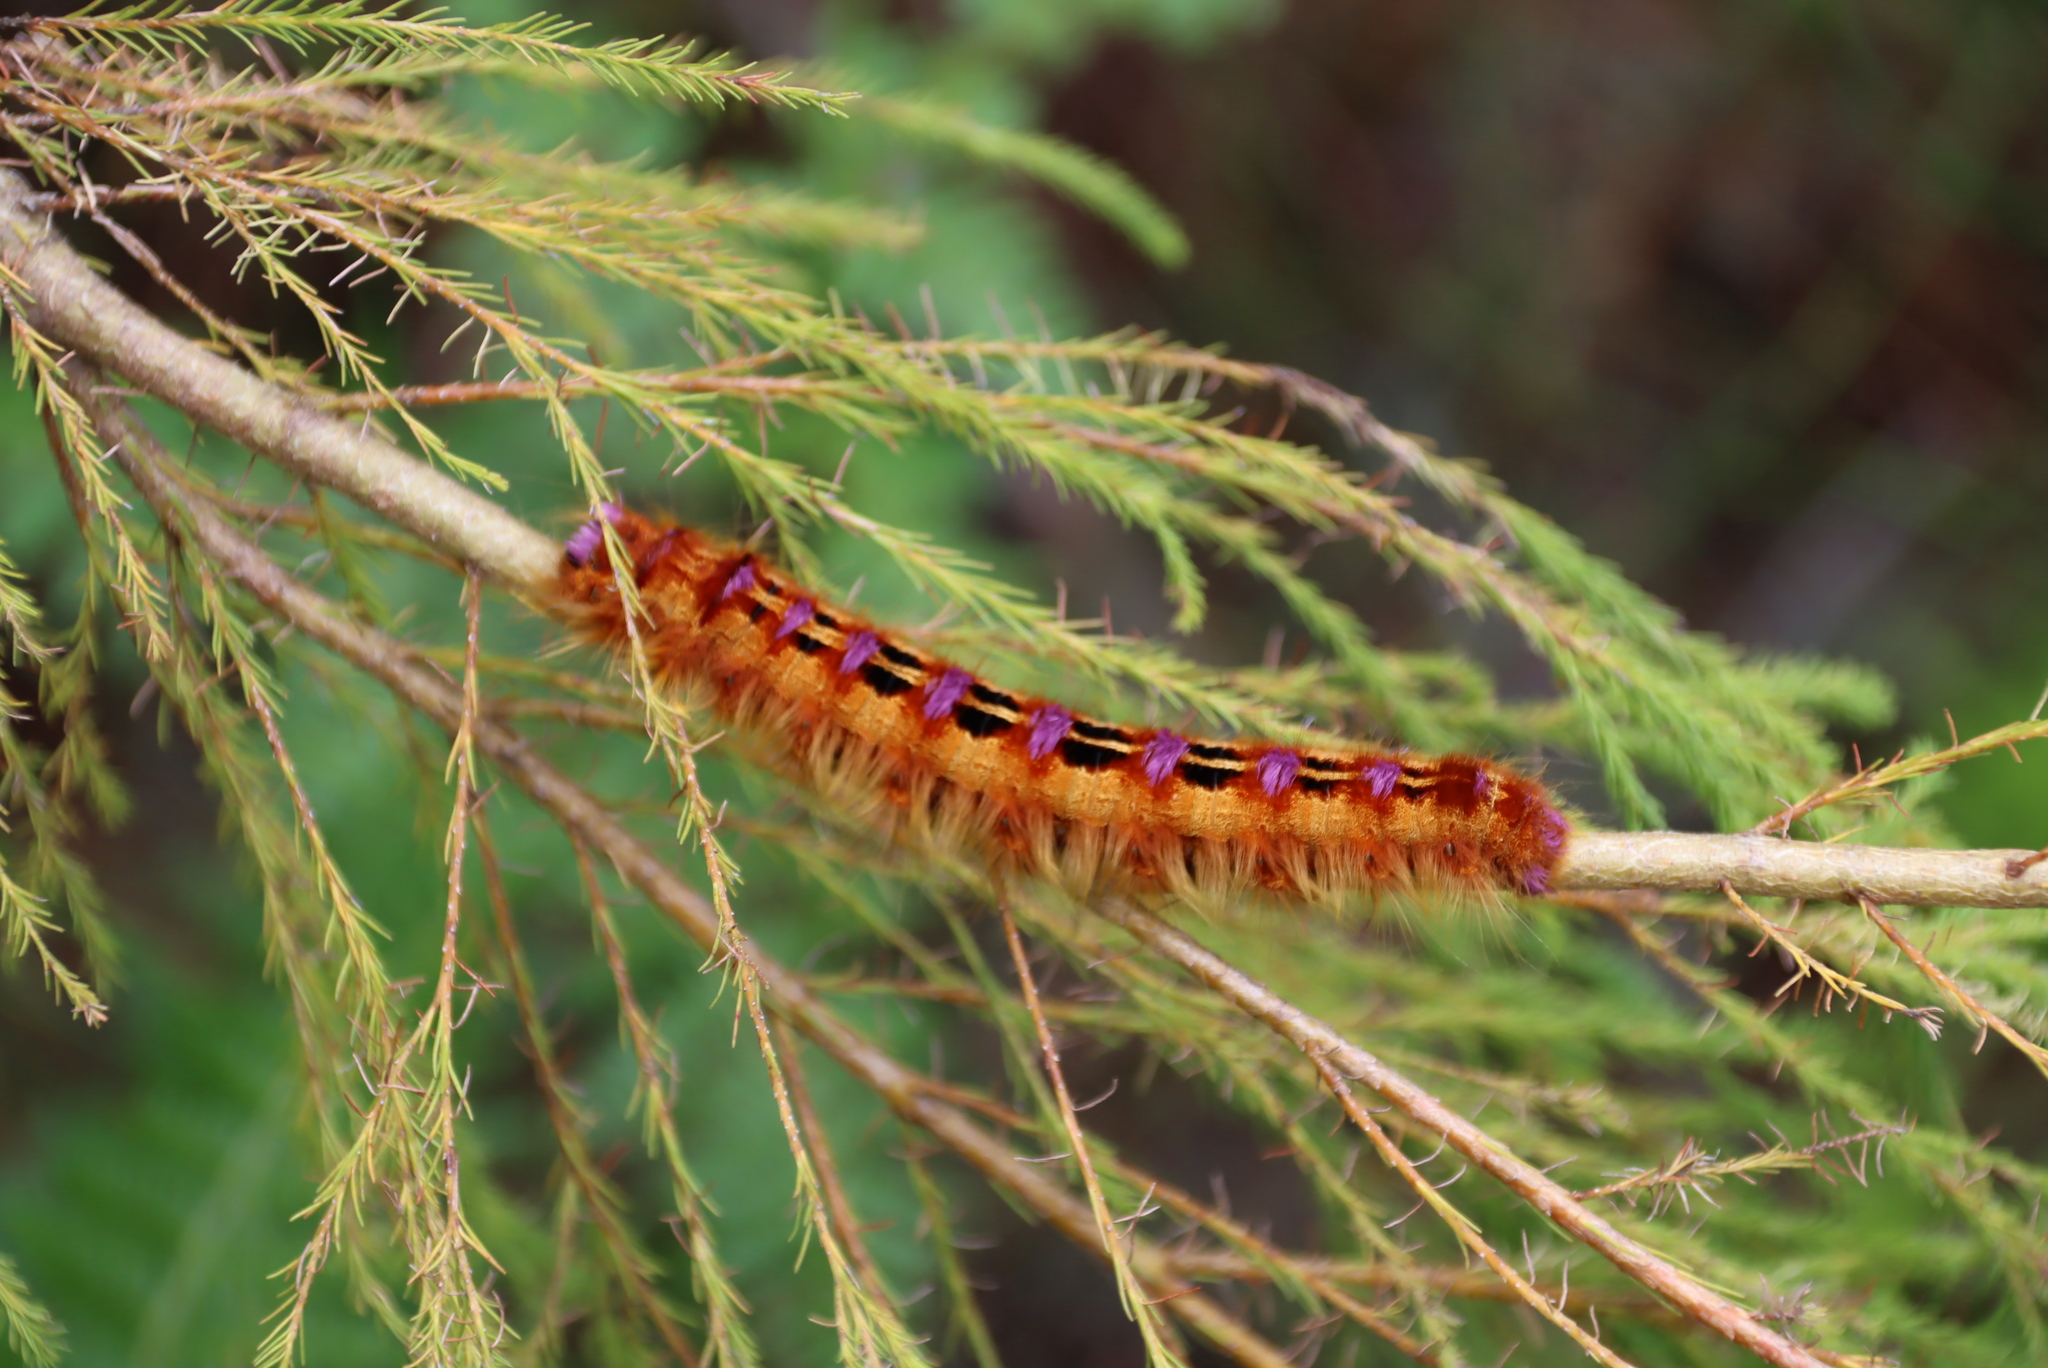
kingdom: Animalia
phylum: Arthropoda
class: Insecta
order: Lepidoptera
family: Lasiocampidae
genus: Eutricha
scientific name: Eutricha bifascia
